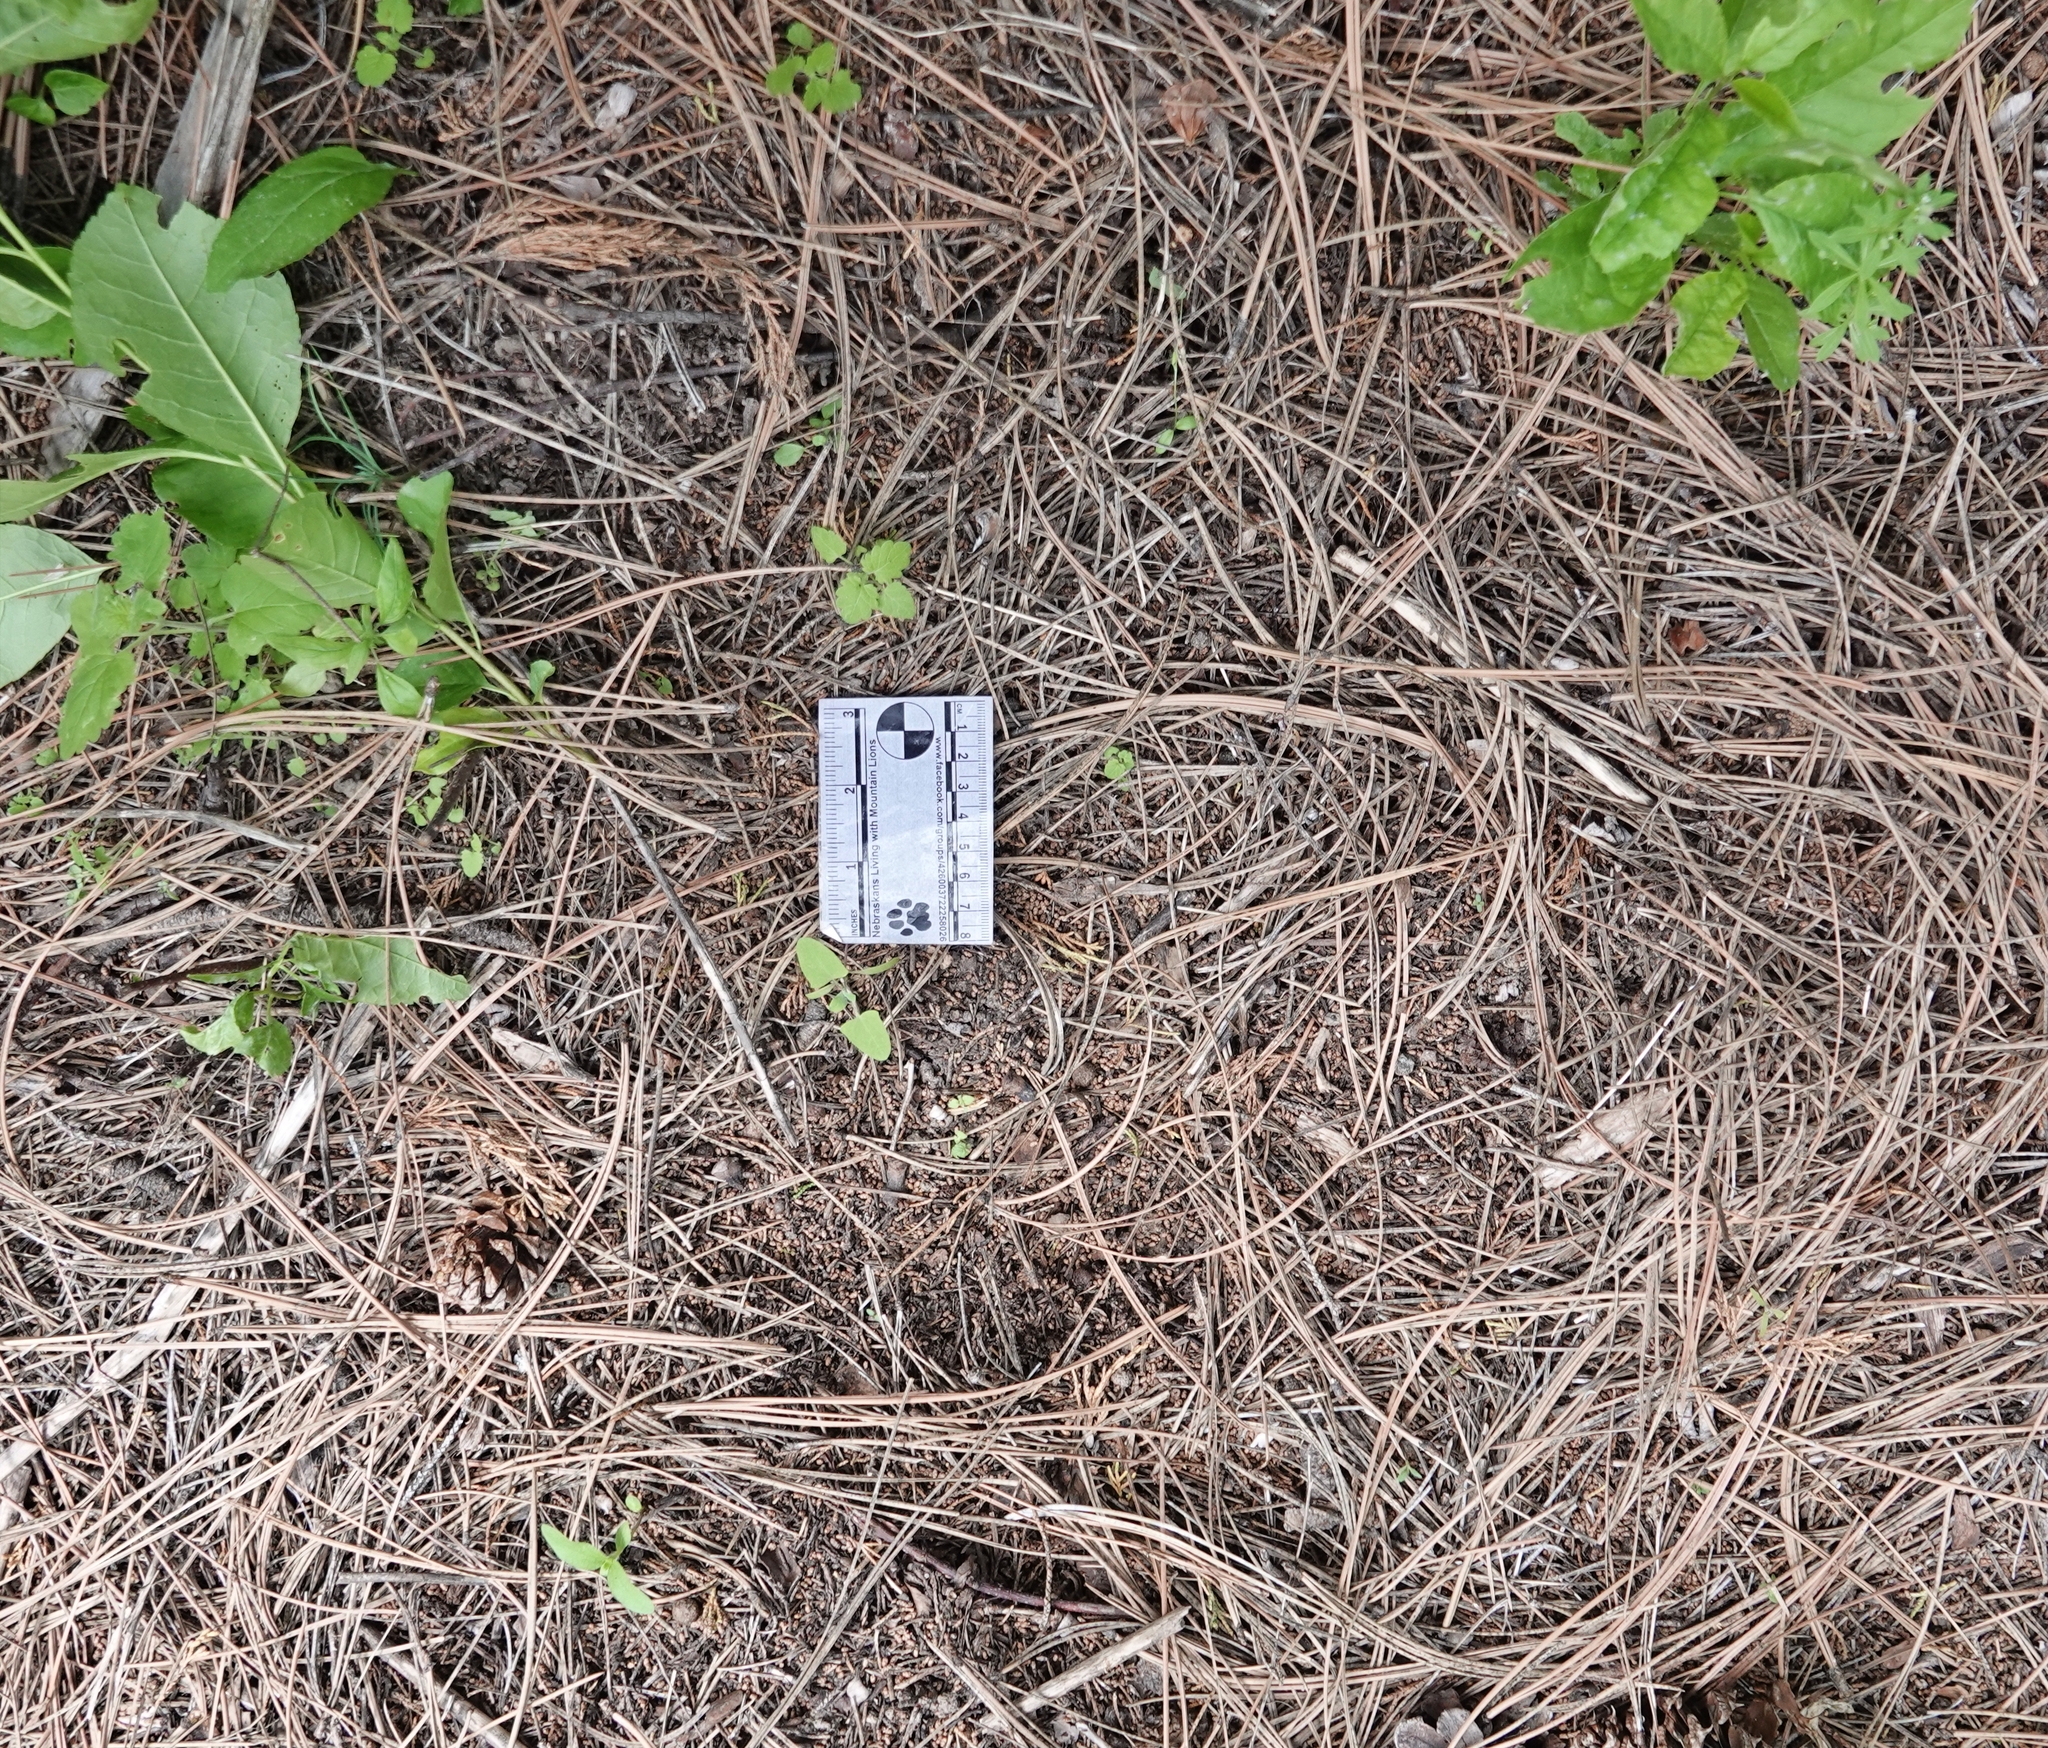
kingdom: Animalia
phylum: Chordata
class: Mammalia
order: Carnivora
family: Felidae
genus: Puma
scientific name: Puma concolor
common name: Puma
